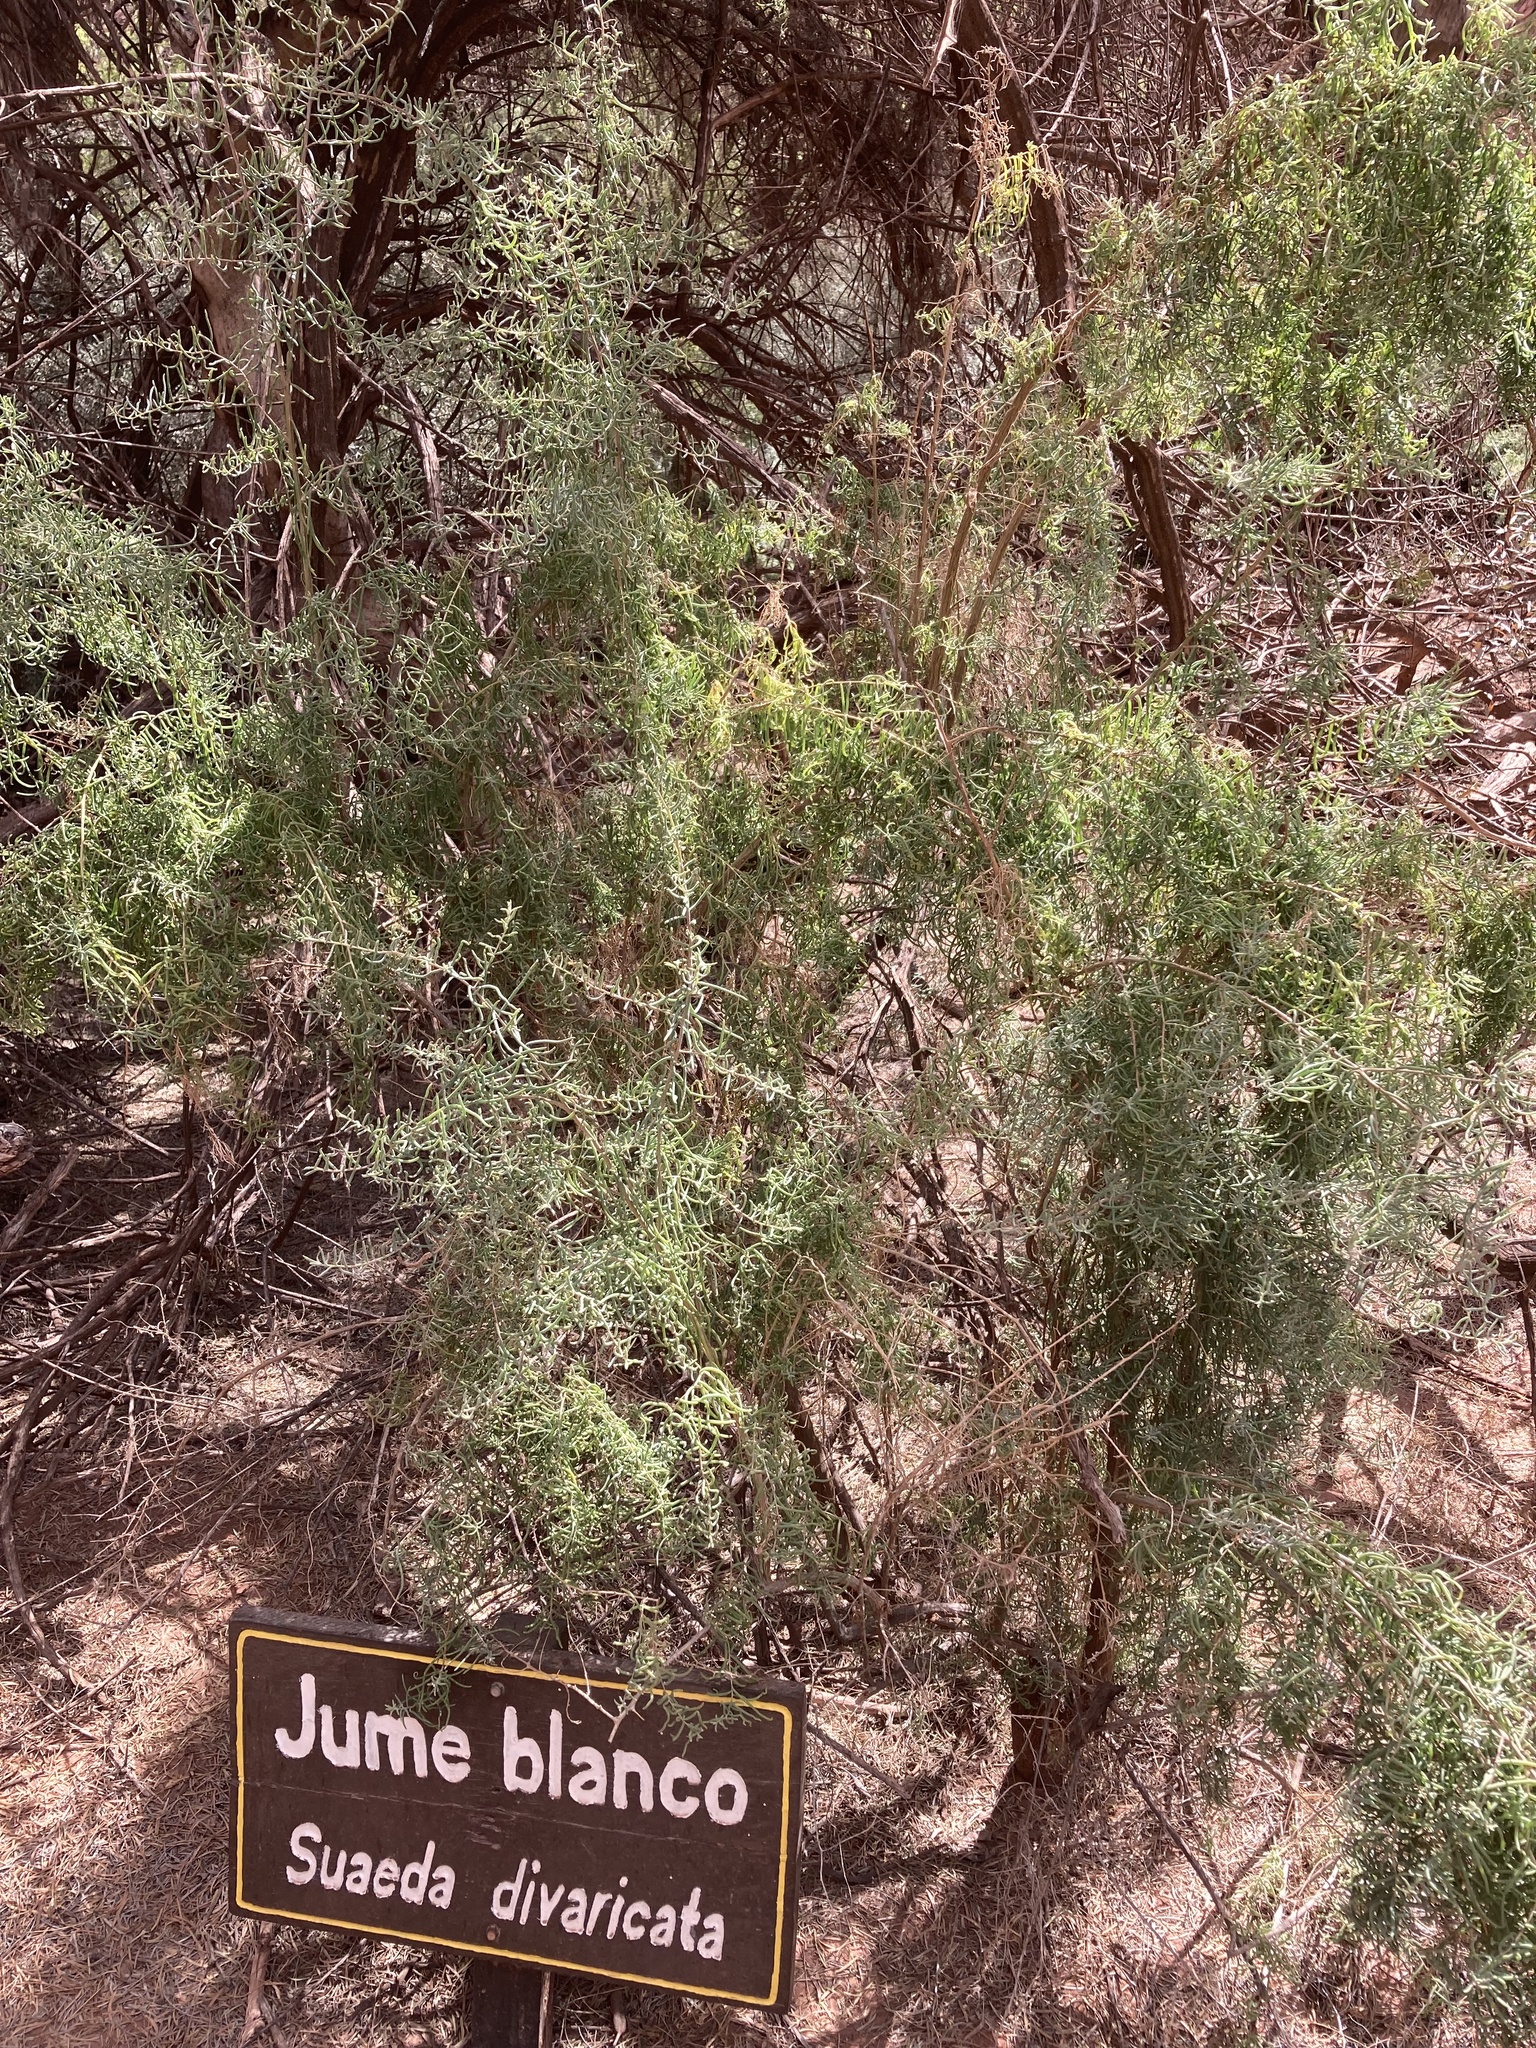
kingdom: Plantae
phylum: Tracheophyta
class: Magnoliopsida
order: Caryophyllales
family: Amaranthaceae
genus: Suaeda
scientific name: Suaeda divaricata
